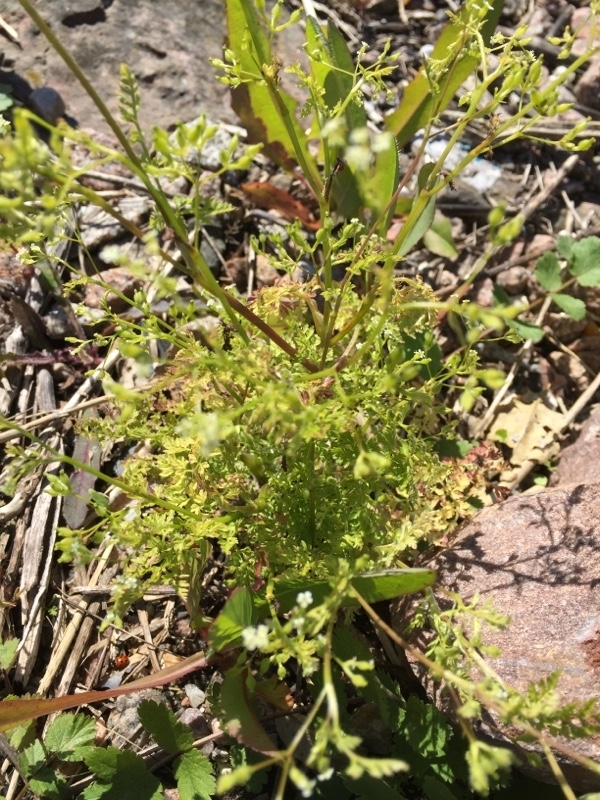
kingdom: Plantae
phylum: Tracheophyta
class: Magnoliopsida
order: Apiales
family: Apiaceae
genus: Anthriscus
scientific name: Anthriscus caucalis
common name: Bur chervil
